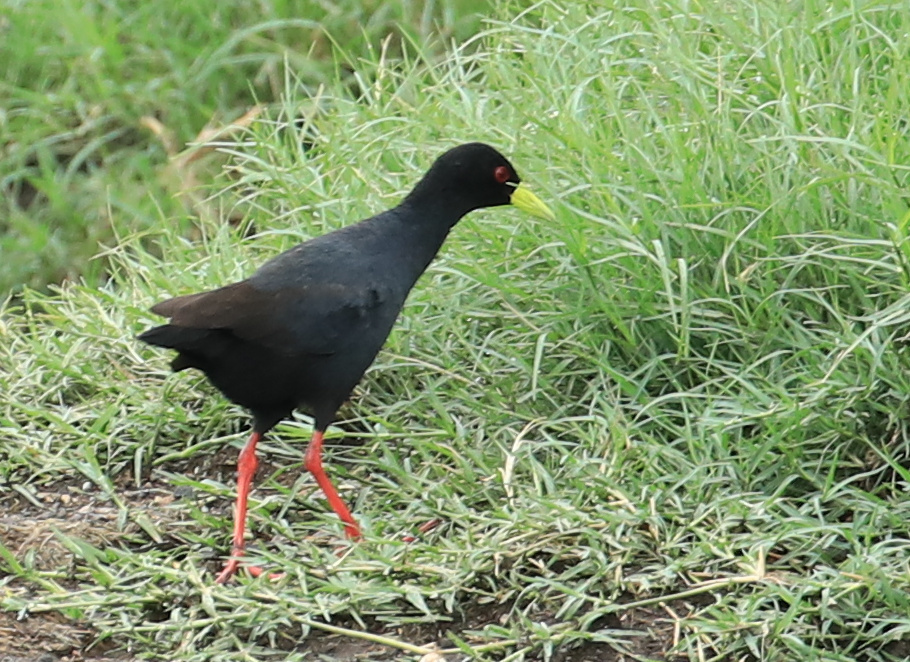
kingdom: Animalia
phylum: Chordata
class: Aves
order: Gruiformes
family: Rallidae
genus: Amaurornis
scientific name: Amaurornis flavirostra
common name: Black crake
